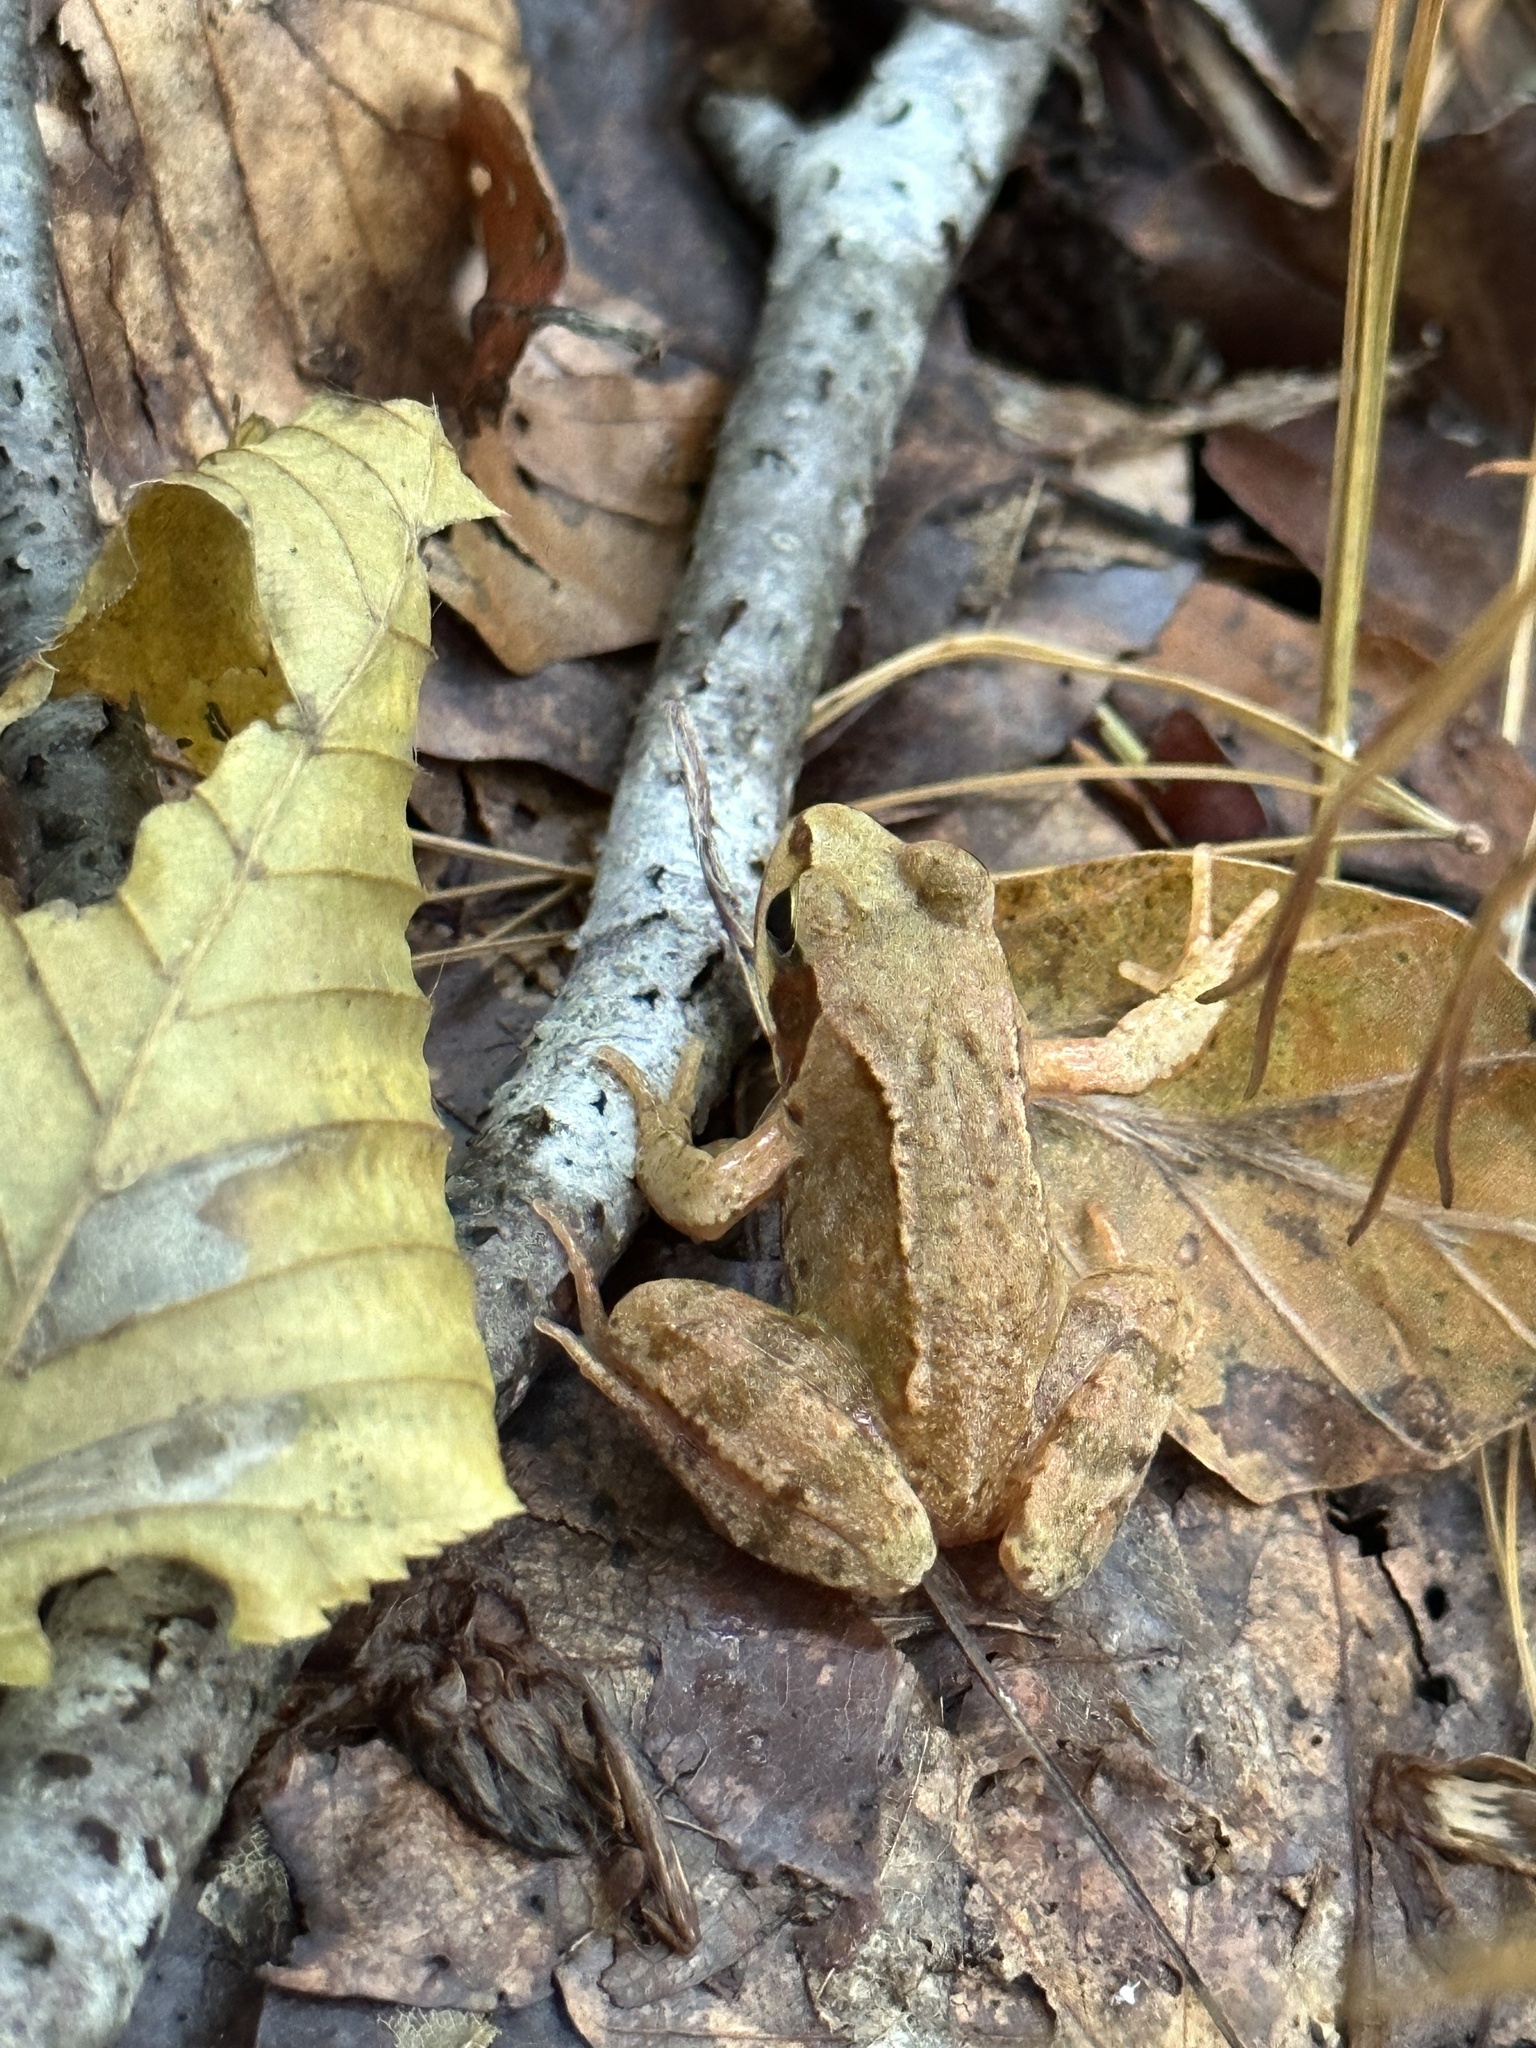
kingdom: Animalia
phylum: Chordata
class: Amphibia
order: Anura
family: Ranidae
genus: Rana
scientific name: Rana temporaria
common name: Common frog
